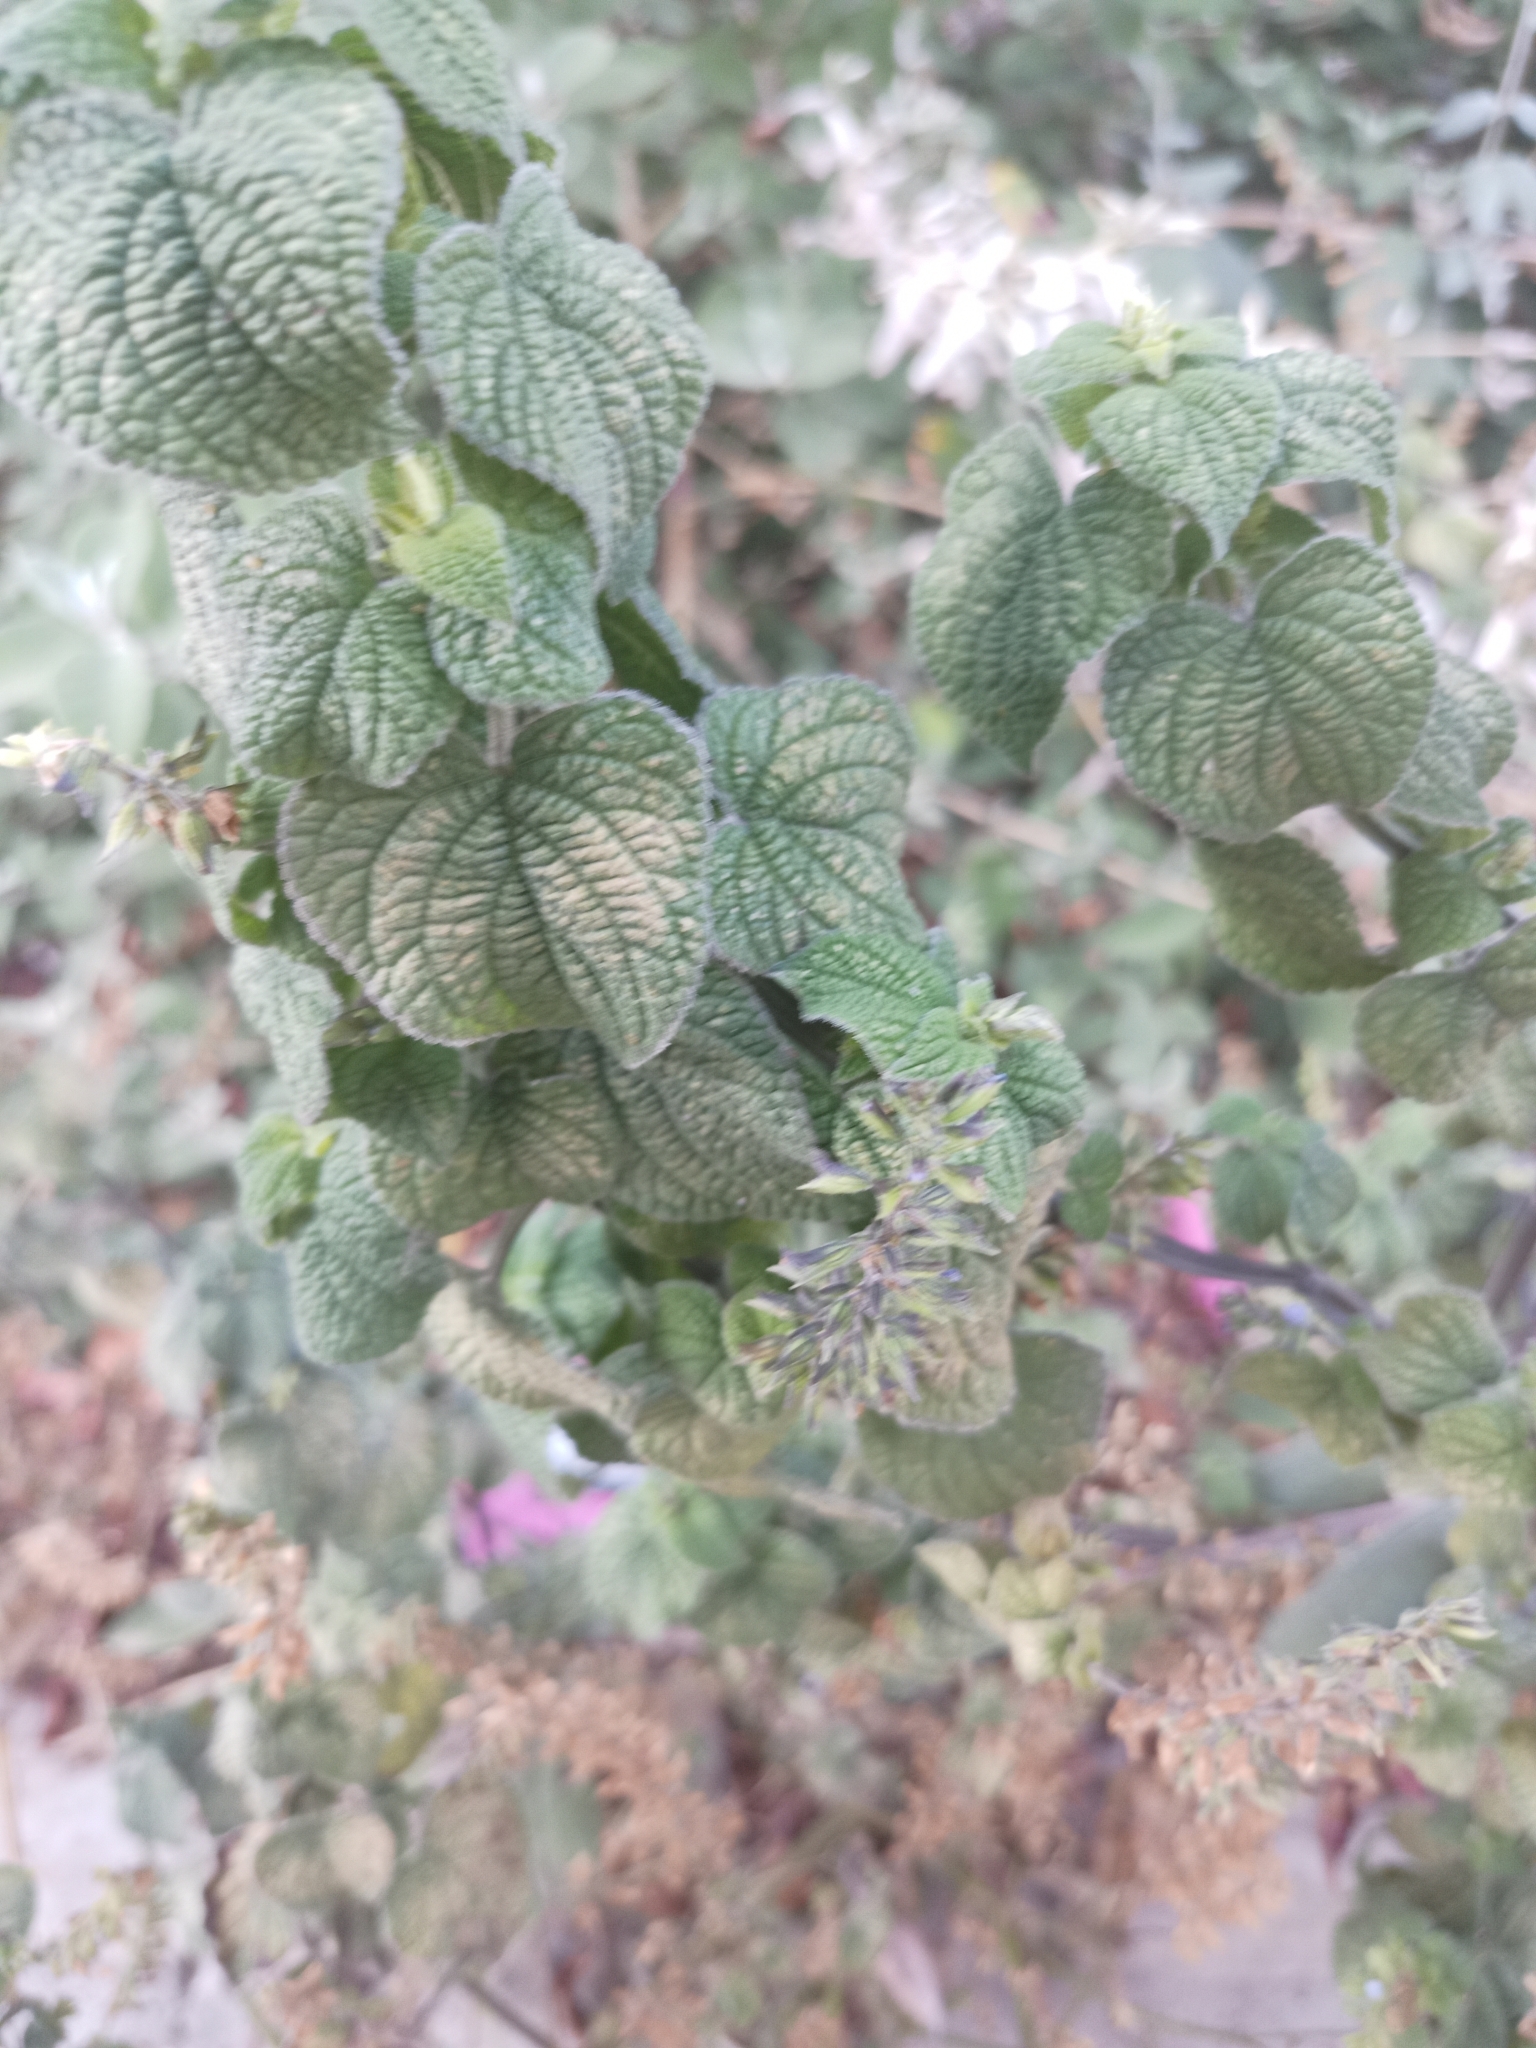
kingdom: Plantae
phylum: Tracheophyta
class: Magnoliopsida
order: Lamiales
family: Lamiaceae
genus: Salvia
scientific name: Salvia tiliifolia
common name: Lindenleaf sage
